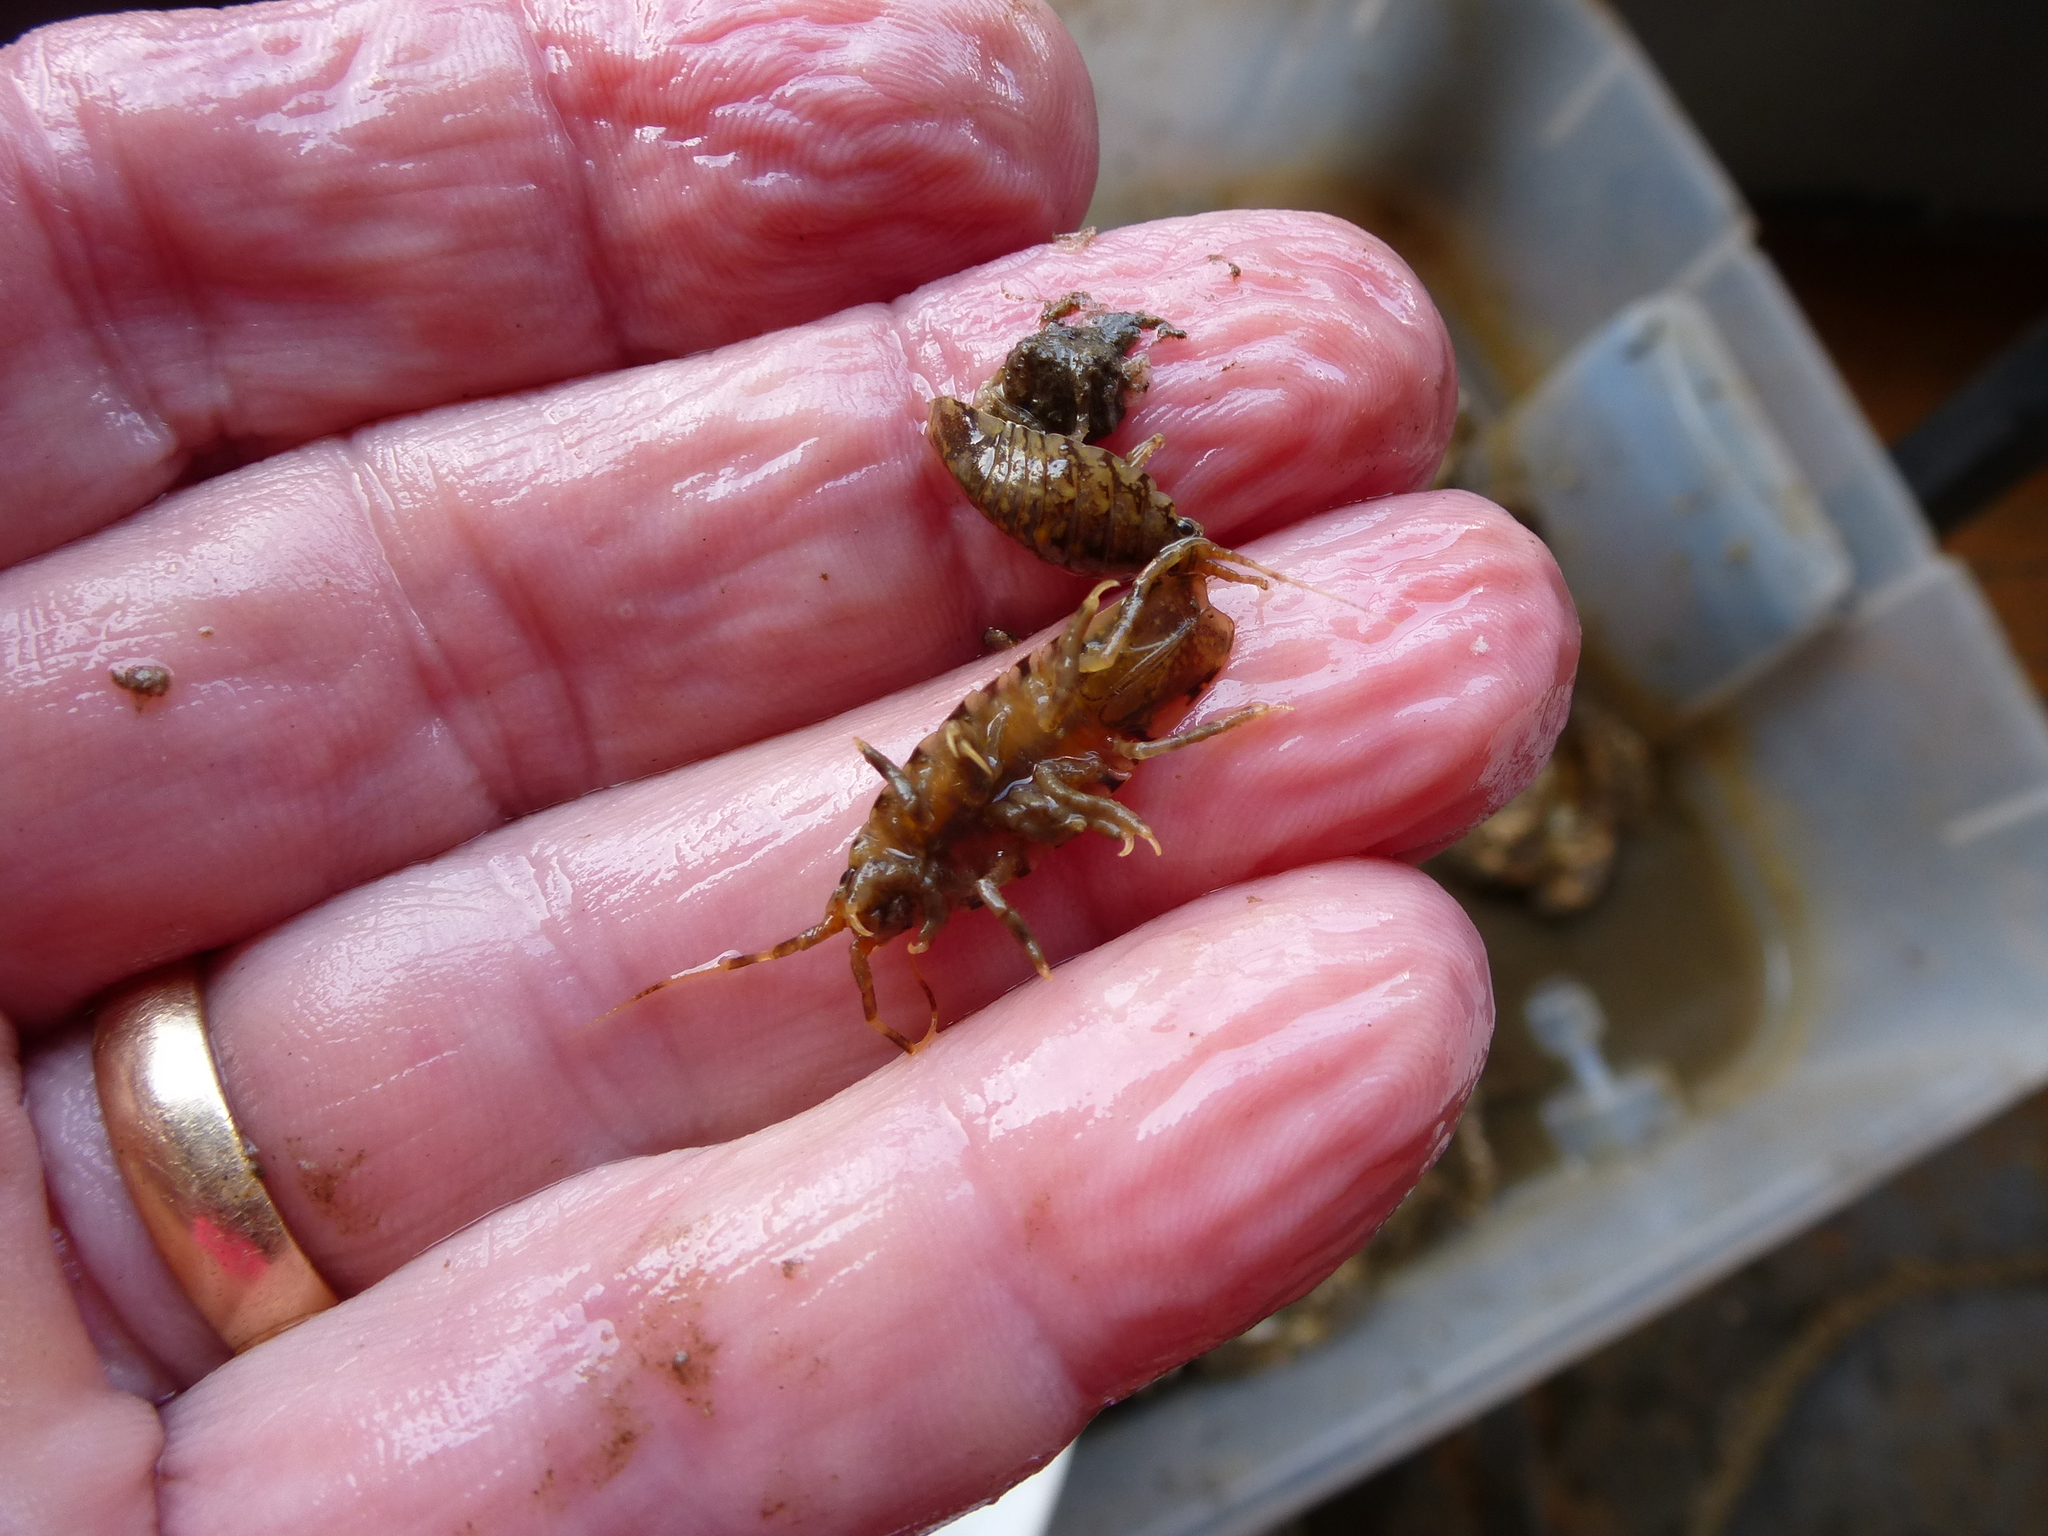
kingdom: Animalia
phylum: Arthropoda
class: Malacostraca
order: Isopoda
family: Idoteidae
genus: Synidotea
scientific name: Synidotea laticauda
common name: Isopod
